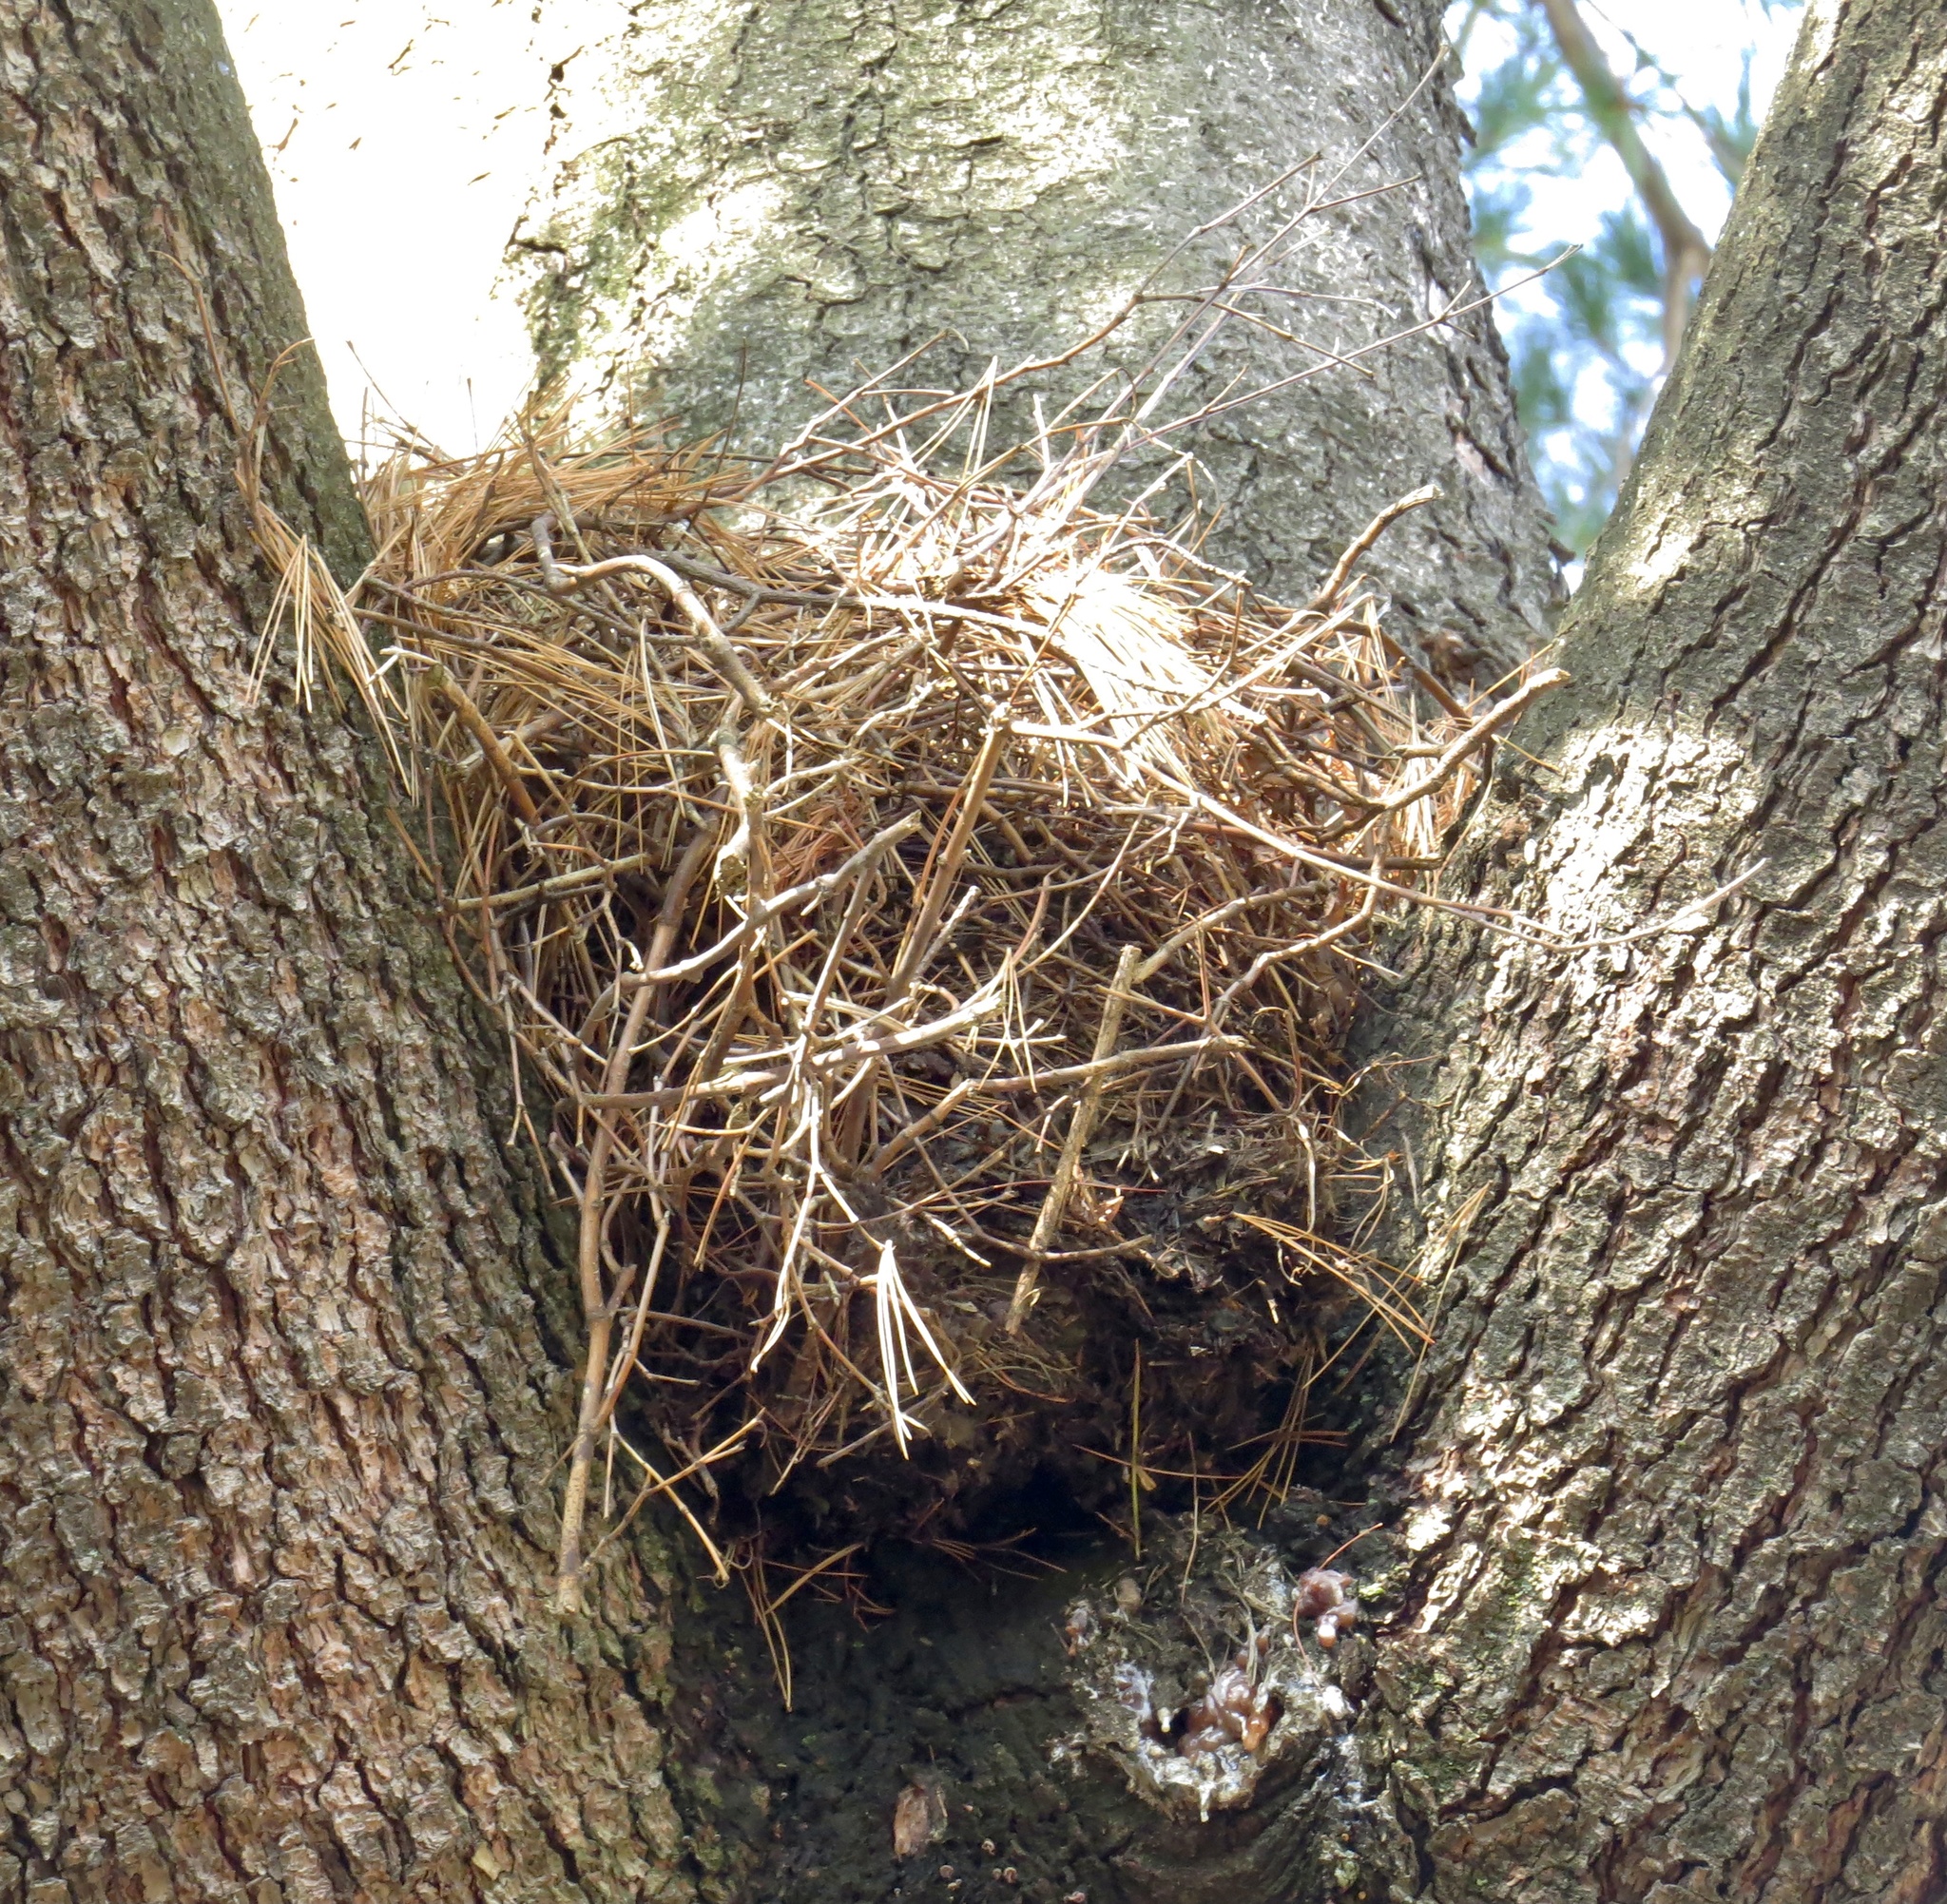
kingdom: Animalia
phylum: Chordata
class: Mammalia
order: Rodentia
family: Sciuridae
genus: Sciurus
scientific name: Sciurus carolinensis
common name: Eastern gray squirrel
